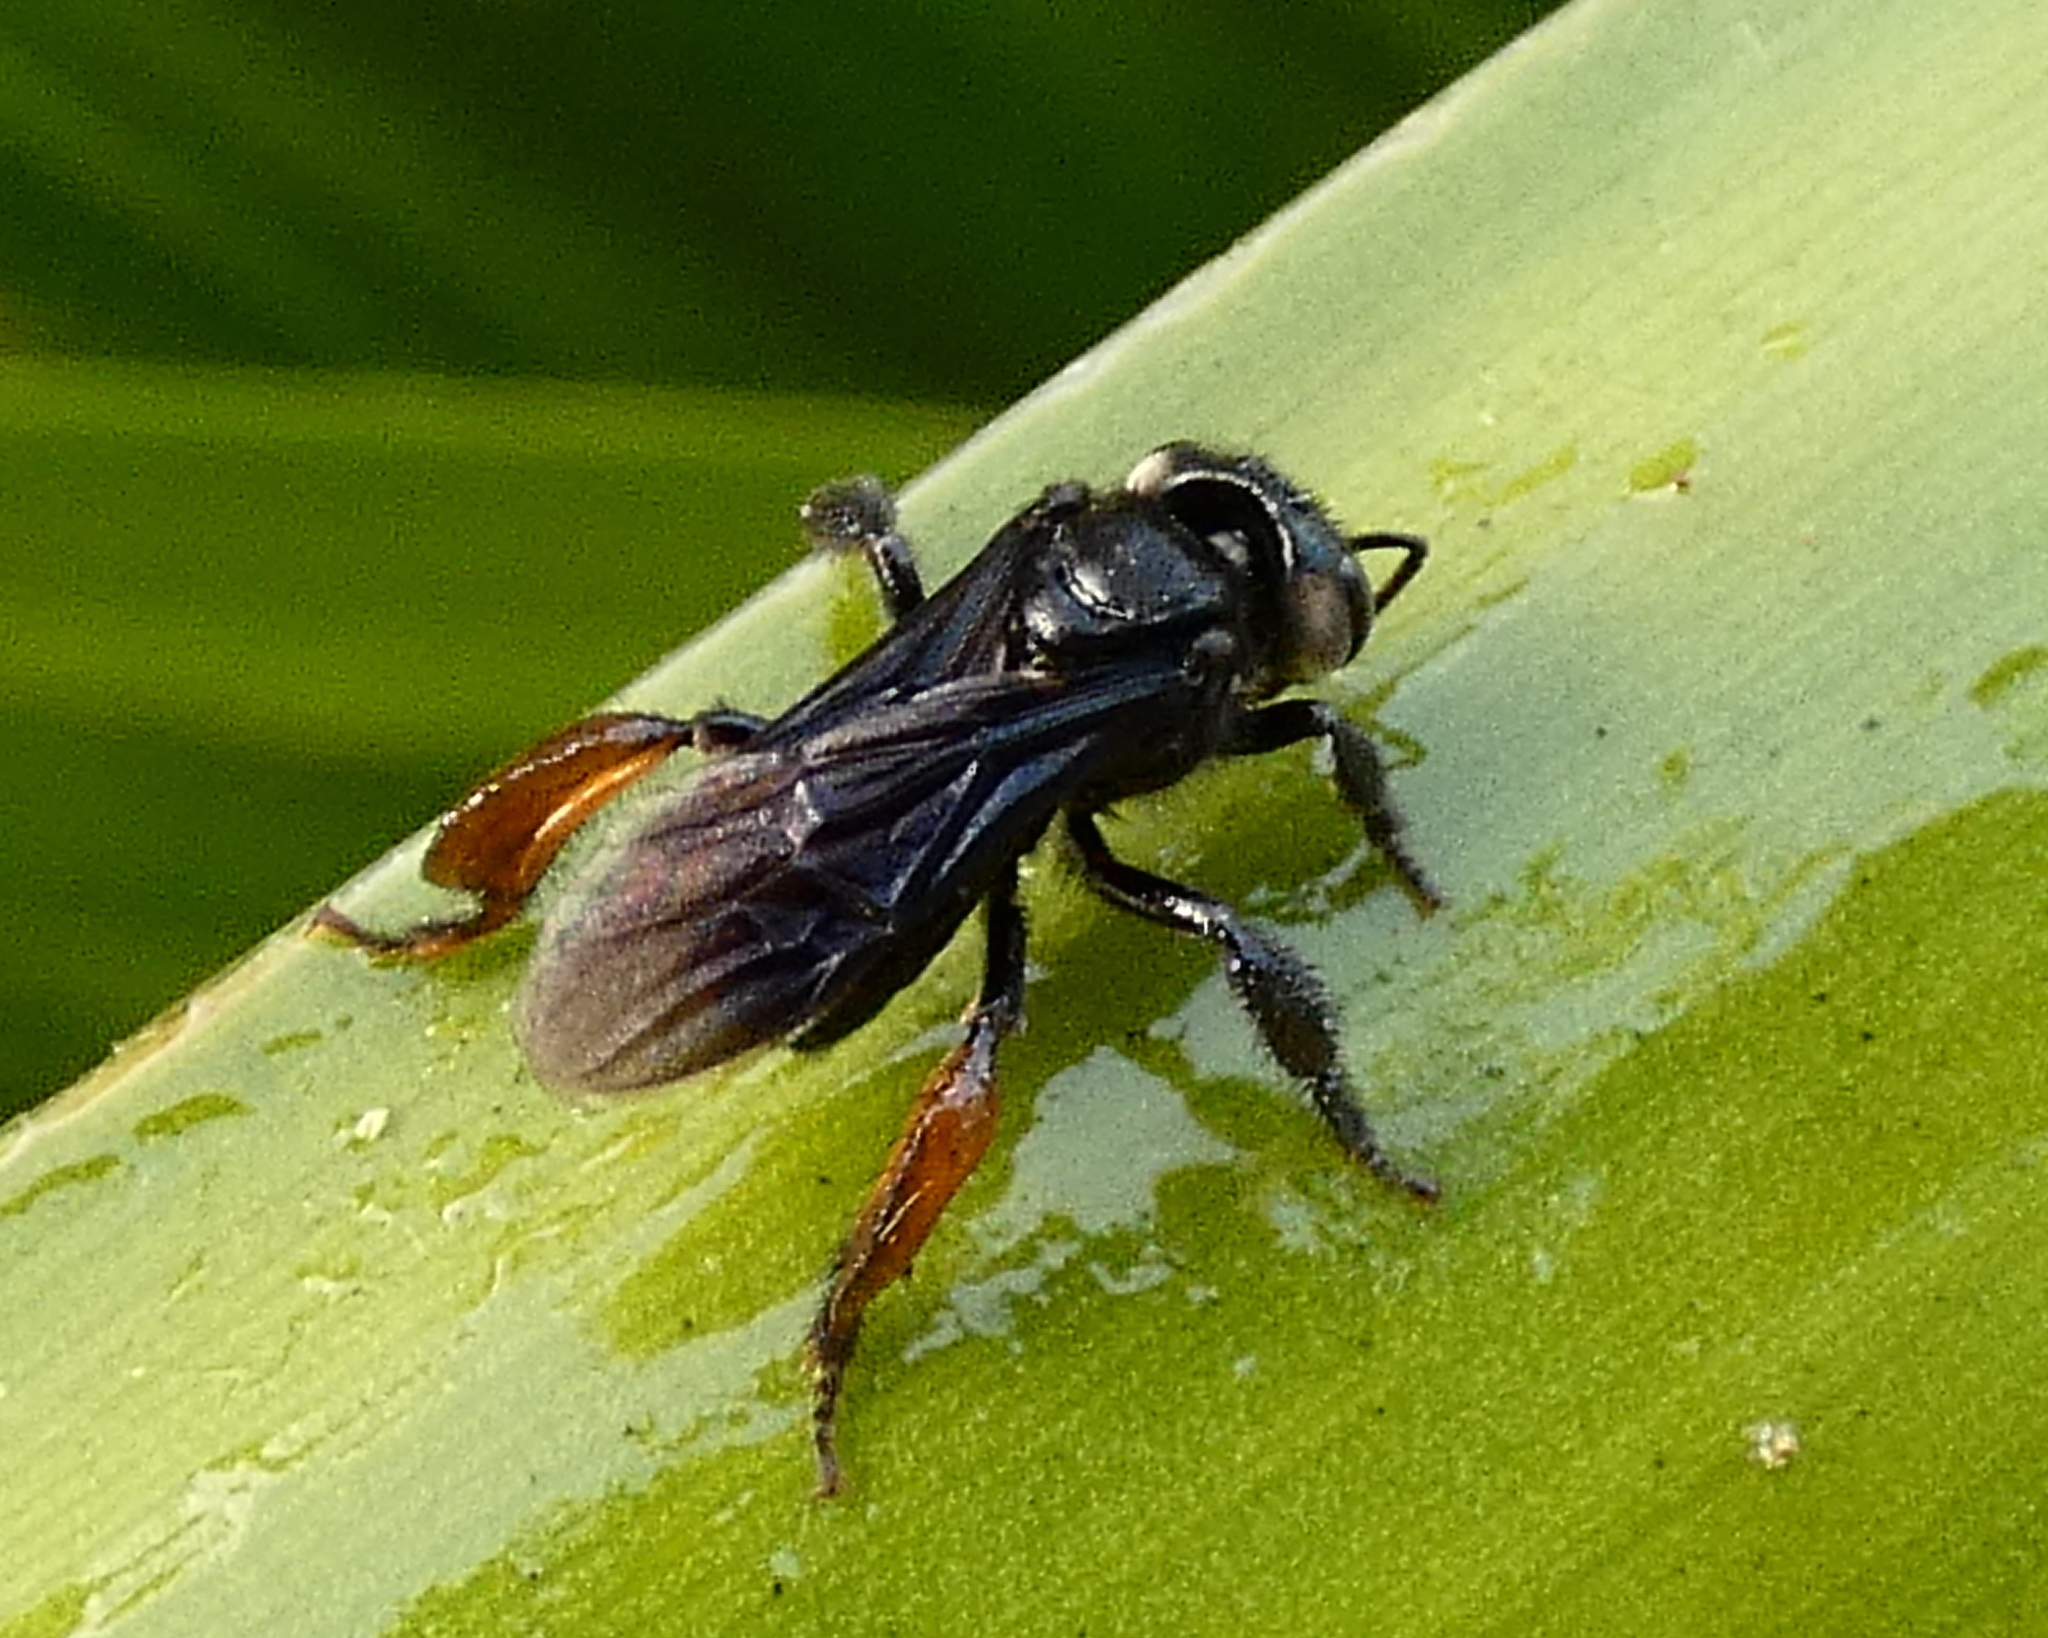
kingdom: Animalia
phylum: Arthropoda
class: Insecta
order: Hymenoptera
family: Apidae
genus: Trigona
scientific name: Trigona spinipes
